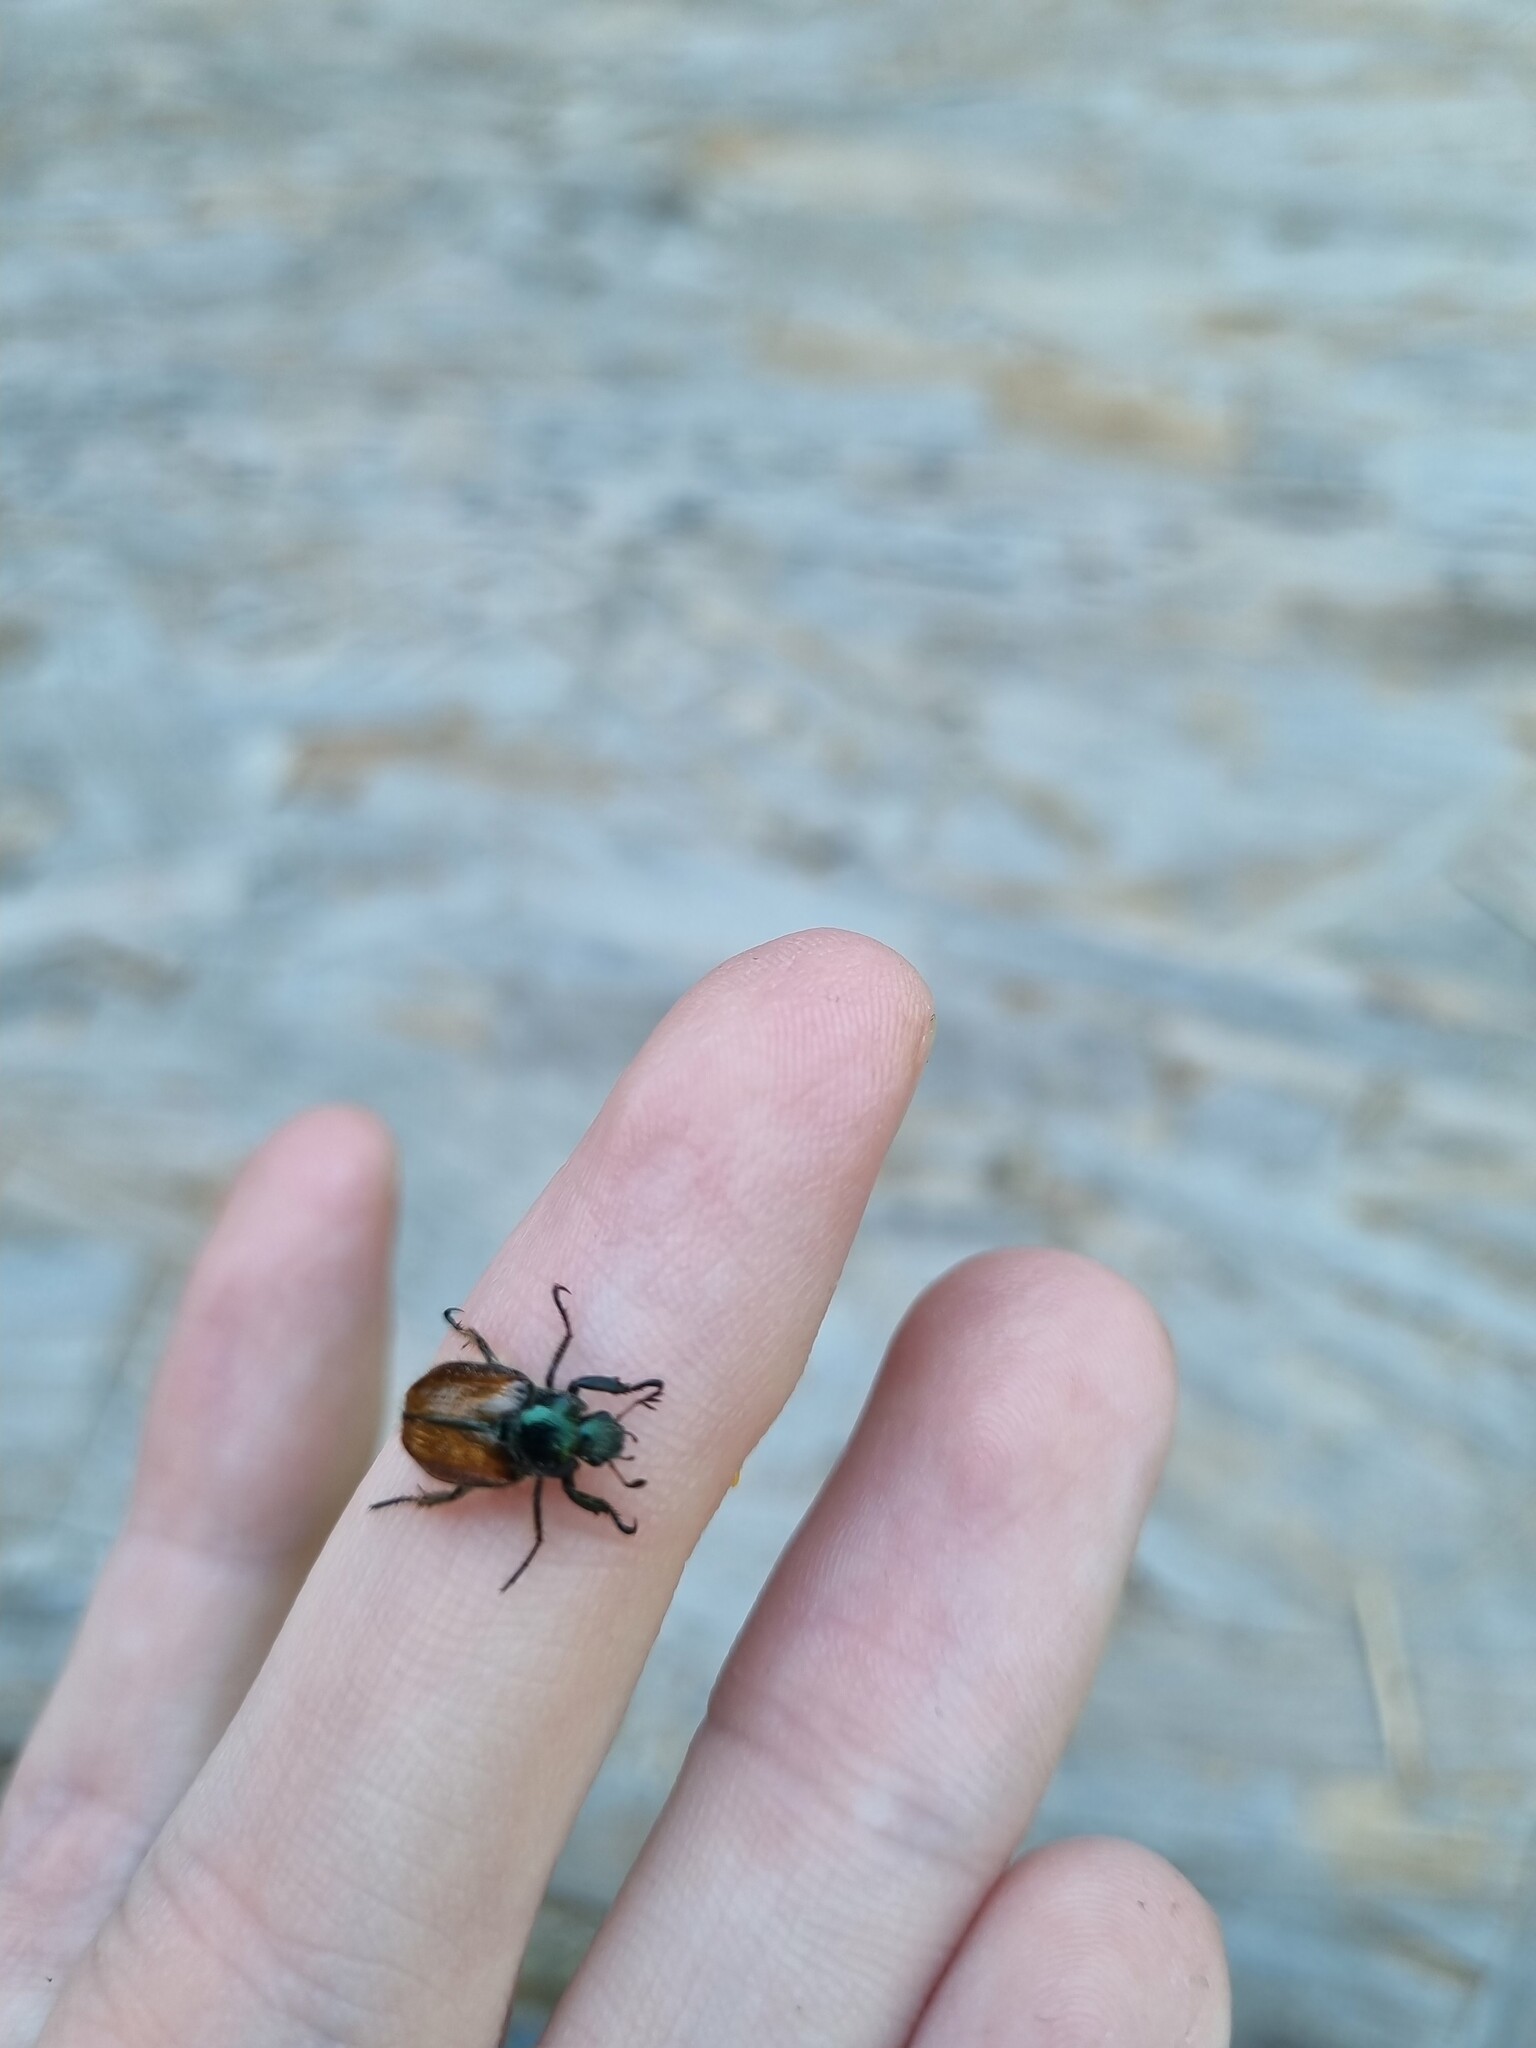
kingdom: Animalia
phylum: Arthropoda
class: Insecta
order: Coleoptera
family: Scarabaeidae
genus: Phyllopertha
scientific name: Phyllopertha horticola
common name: Garden chafer
